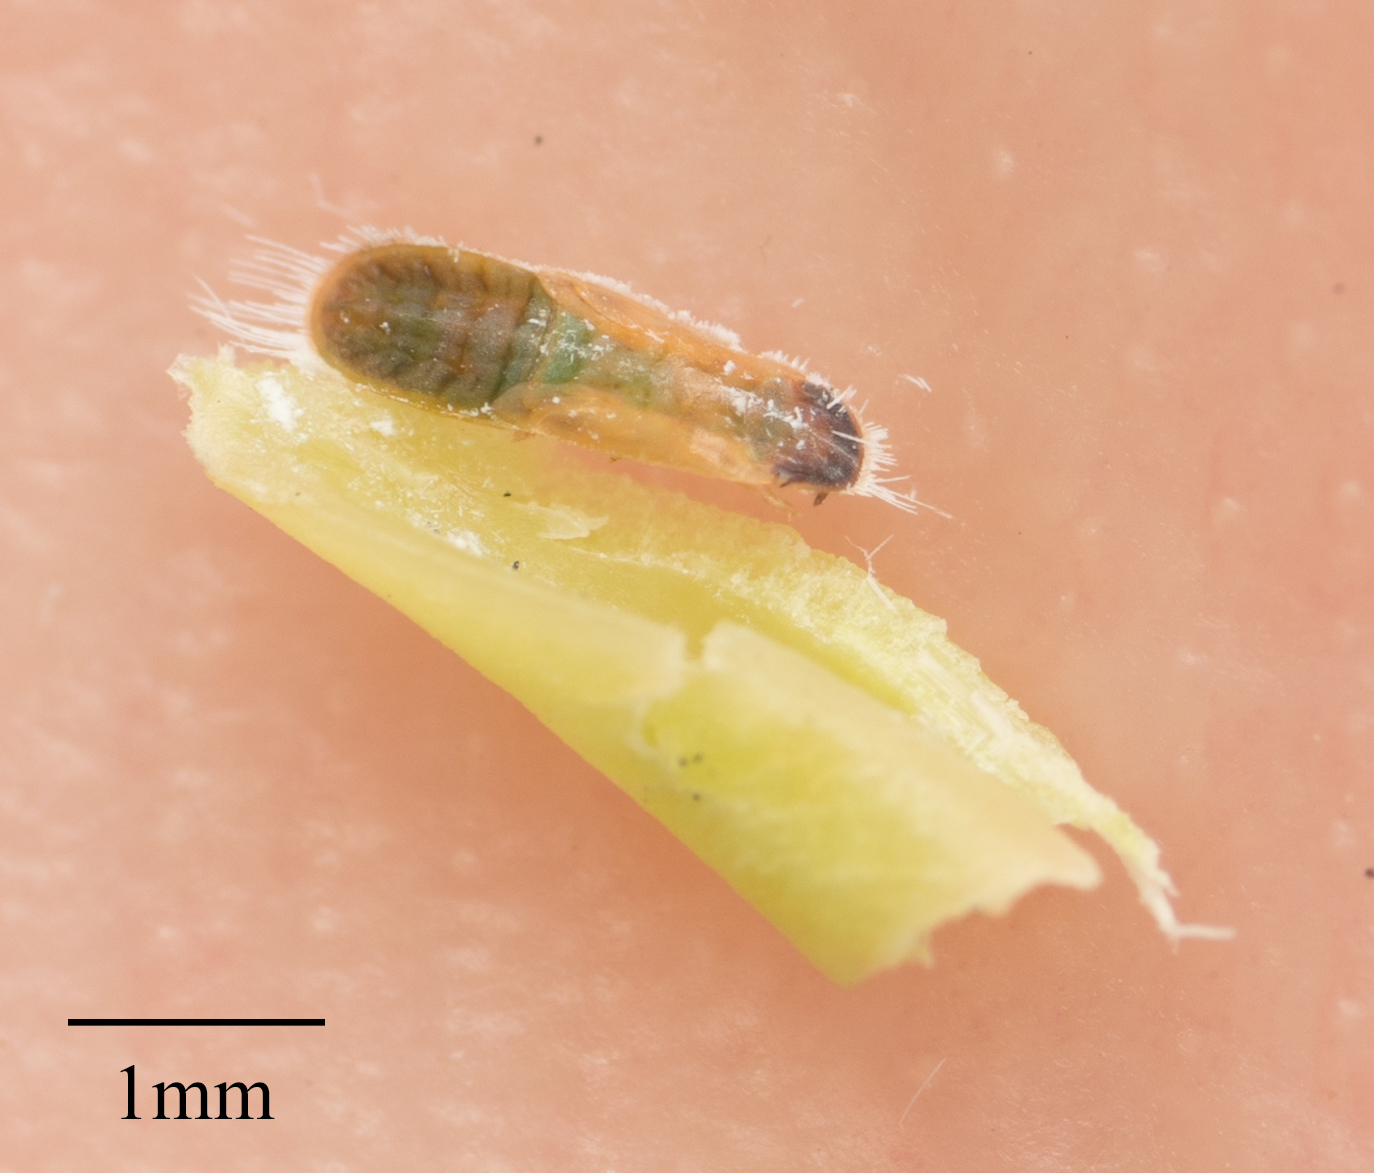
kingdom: Animalia
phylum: Arthropoda
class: Insecta
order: Hemiptera
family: Triozidae
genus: Trioza
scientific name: Trioza brevigenae
